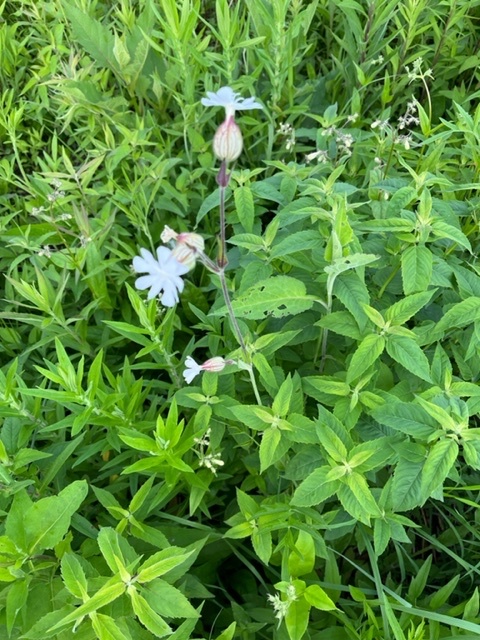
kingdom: Plantae
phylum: Tracheophyta
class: Magnoliopsida
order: Caryophyllales
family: Caryophyllaceae
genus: Silene
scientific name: Silene latifolia
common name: White campion
